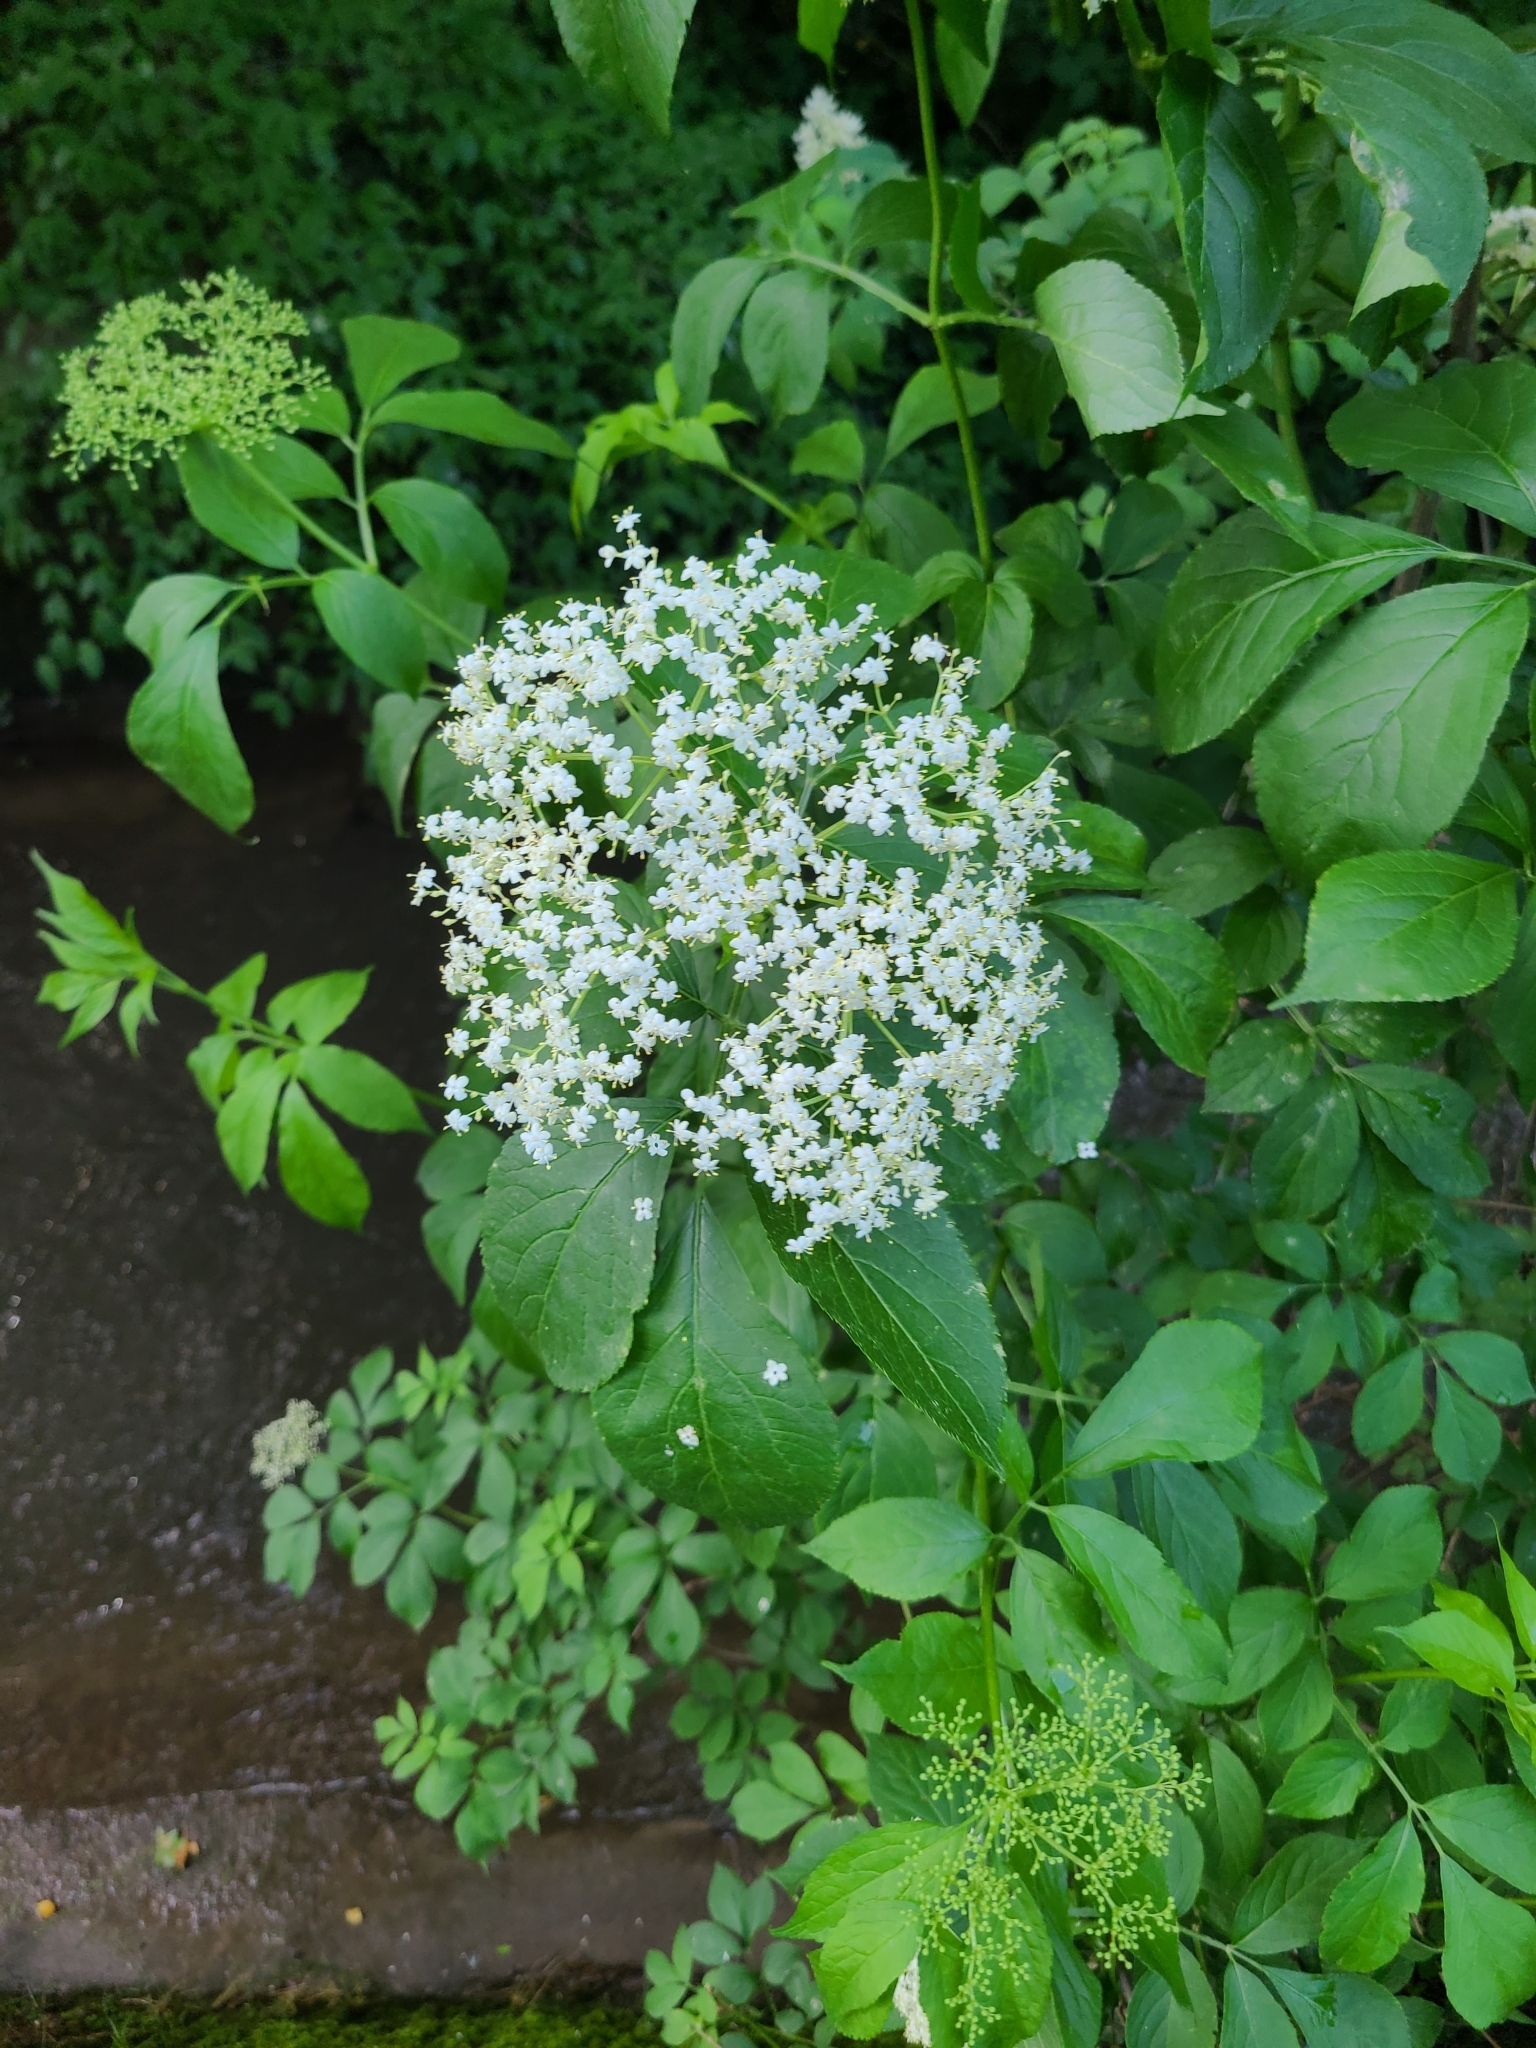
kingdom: Plantae
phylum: Tracheophyta
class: Magnoliopsida
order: Dipsacales
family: Viburnaceae
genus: Sambucus
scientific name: Sambucus nigra
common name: Elder
